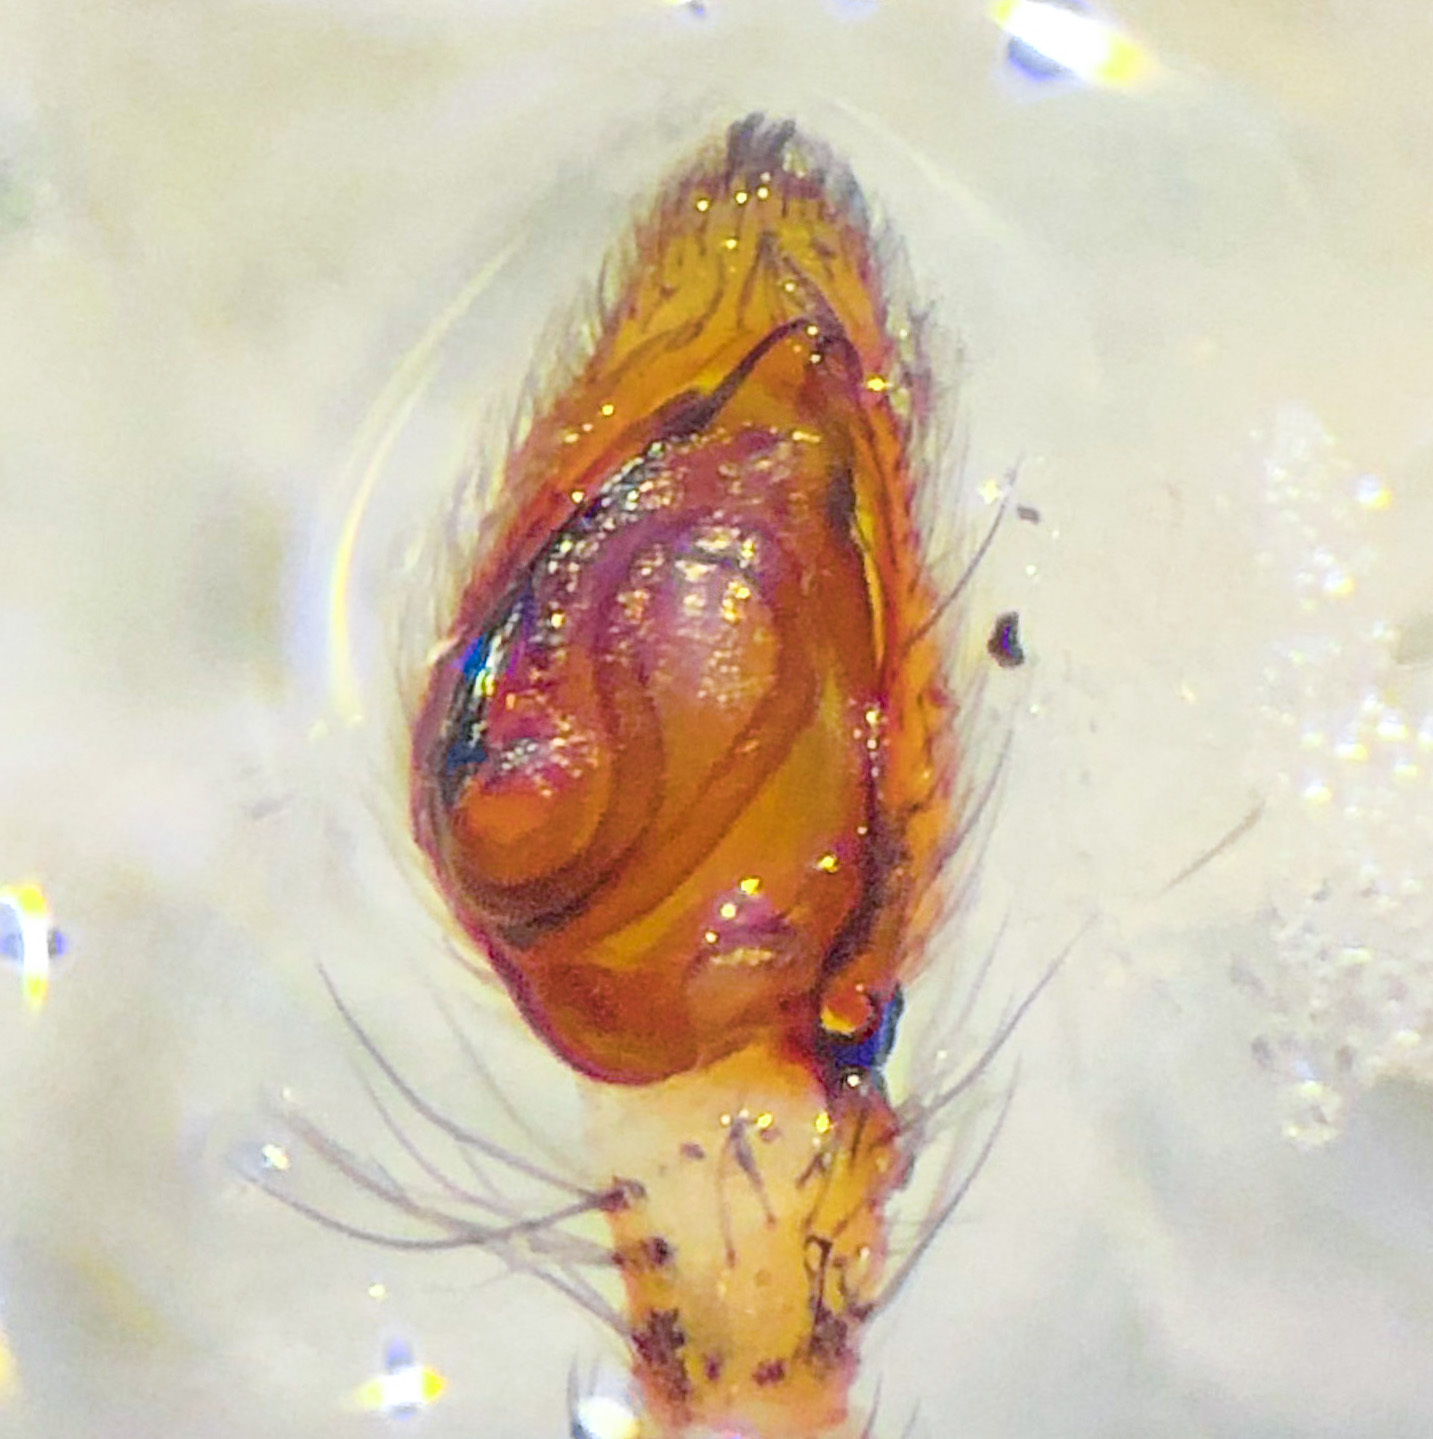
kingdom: Animalia
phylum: Arthropoda
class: Arachnida
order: Araneae
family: Philodromidae
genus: Philodromus
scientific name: Philodromus placidus
